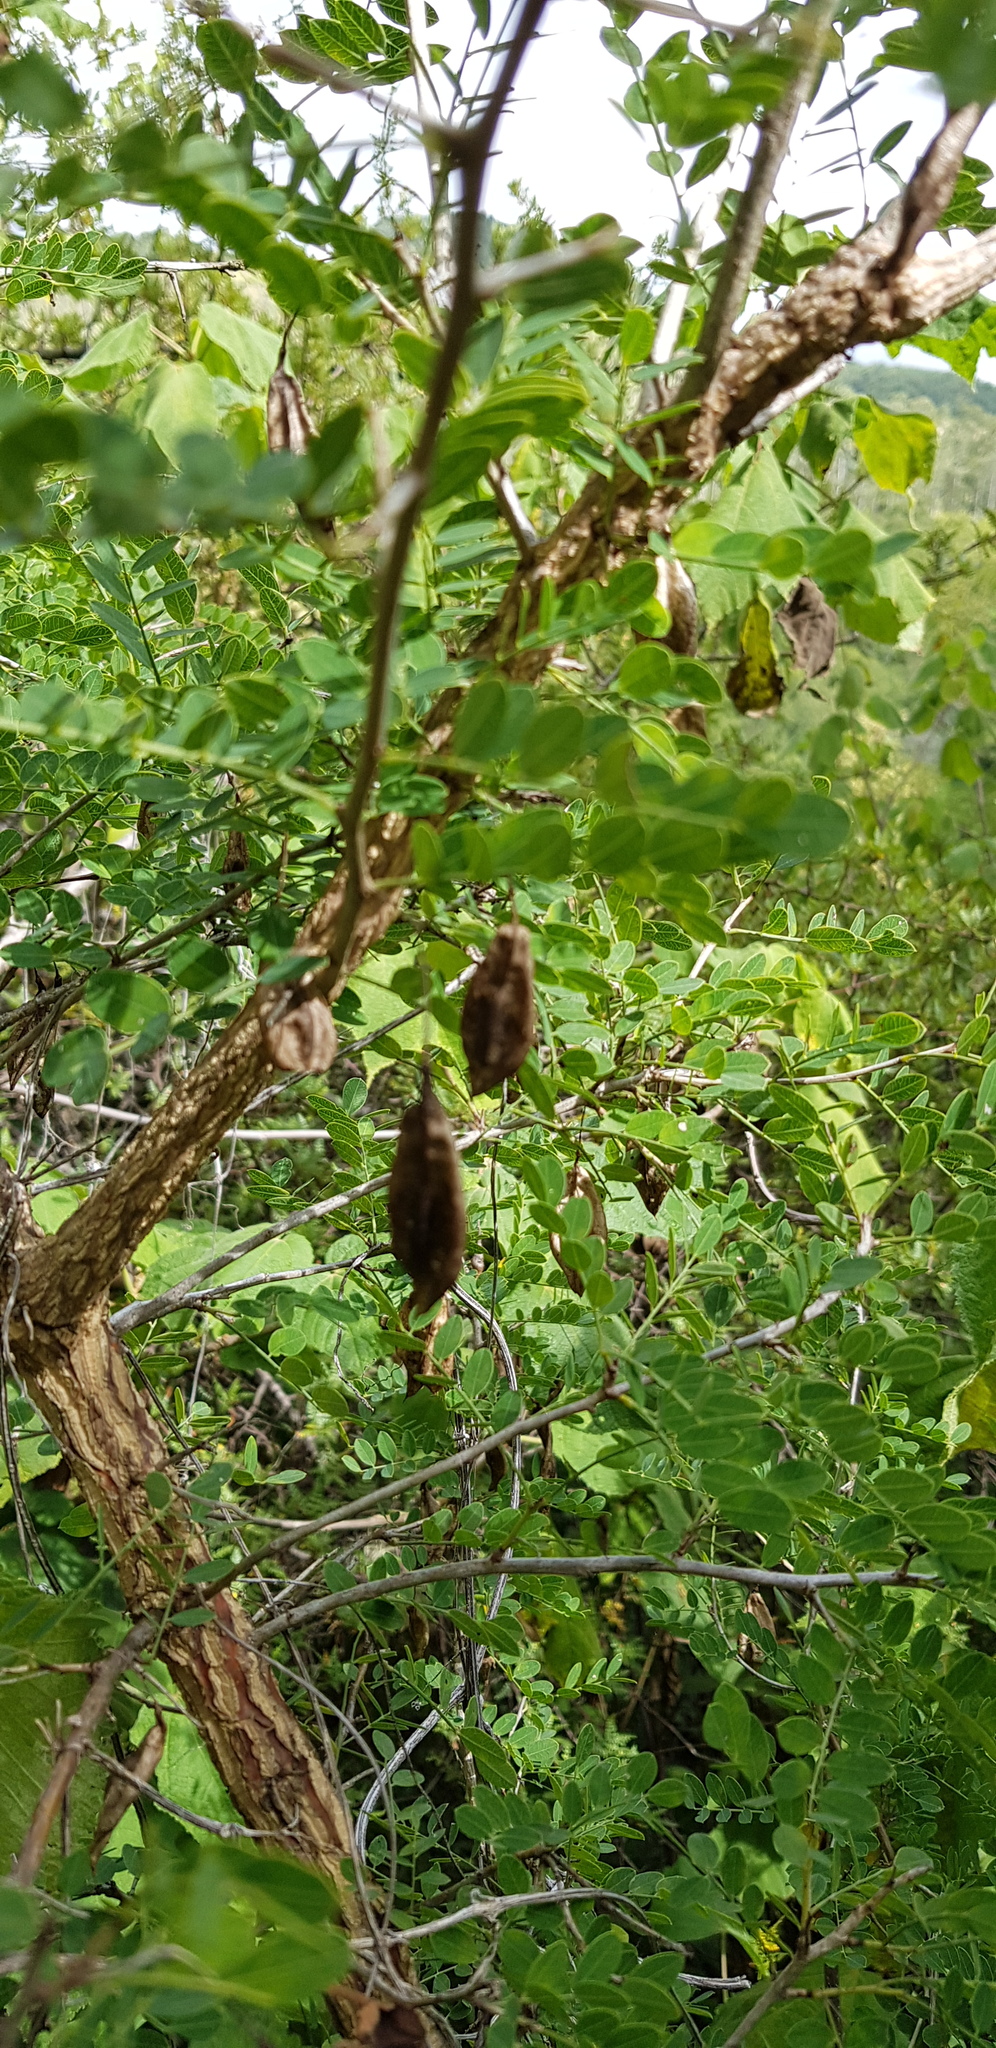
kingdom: Plantae
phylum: Tracheophyta
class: Magnoliopsida
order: Fabales
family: Fabaceae
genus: Diphysa
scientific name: Diphysa suberosa
